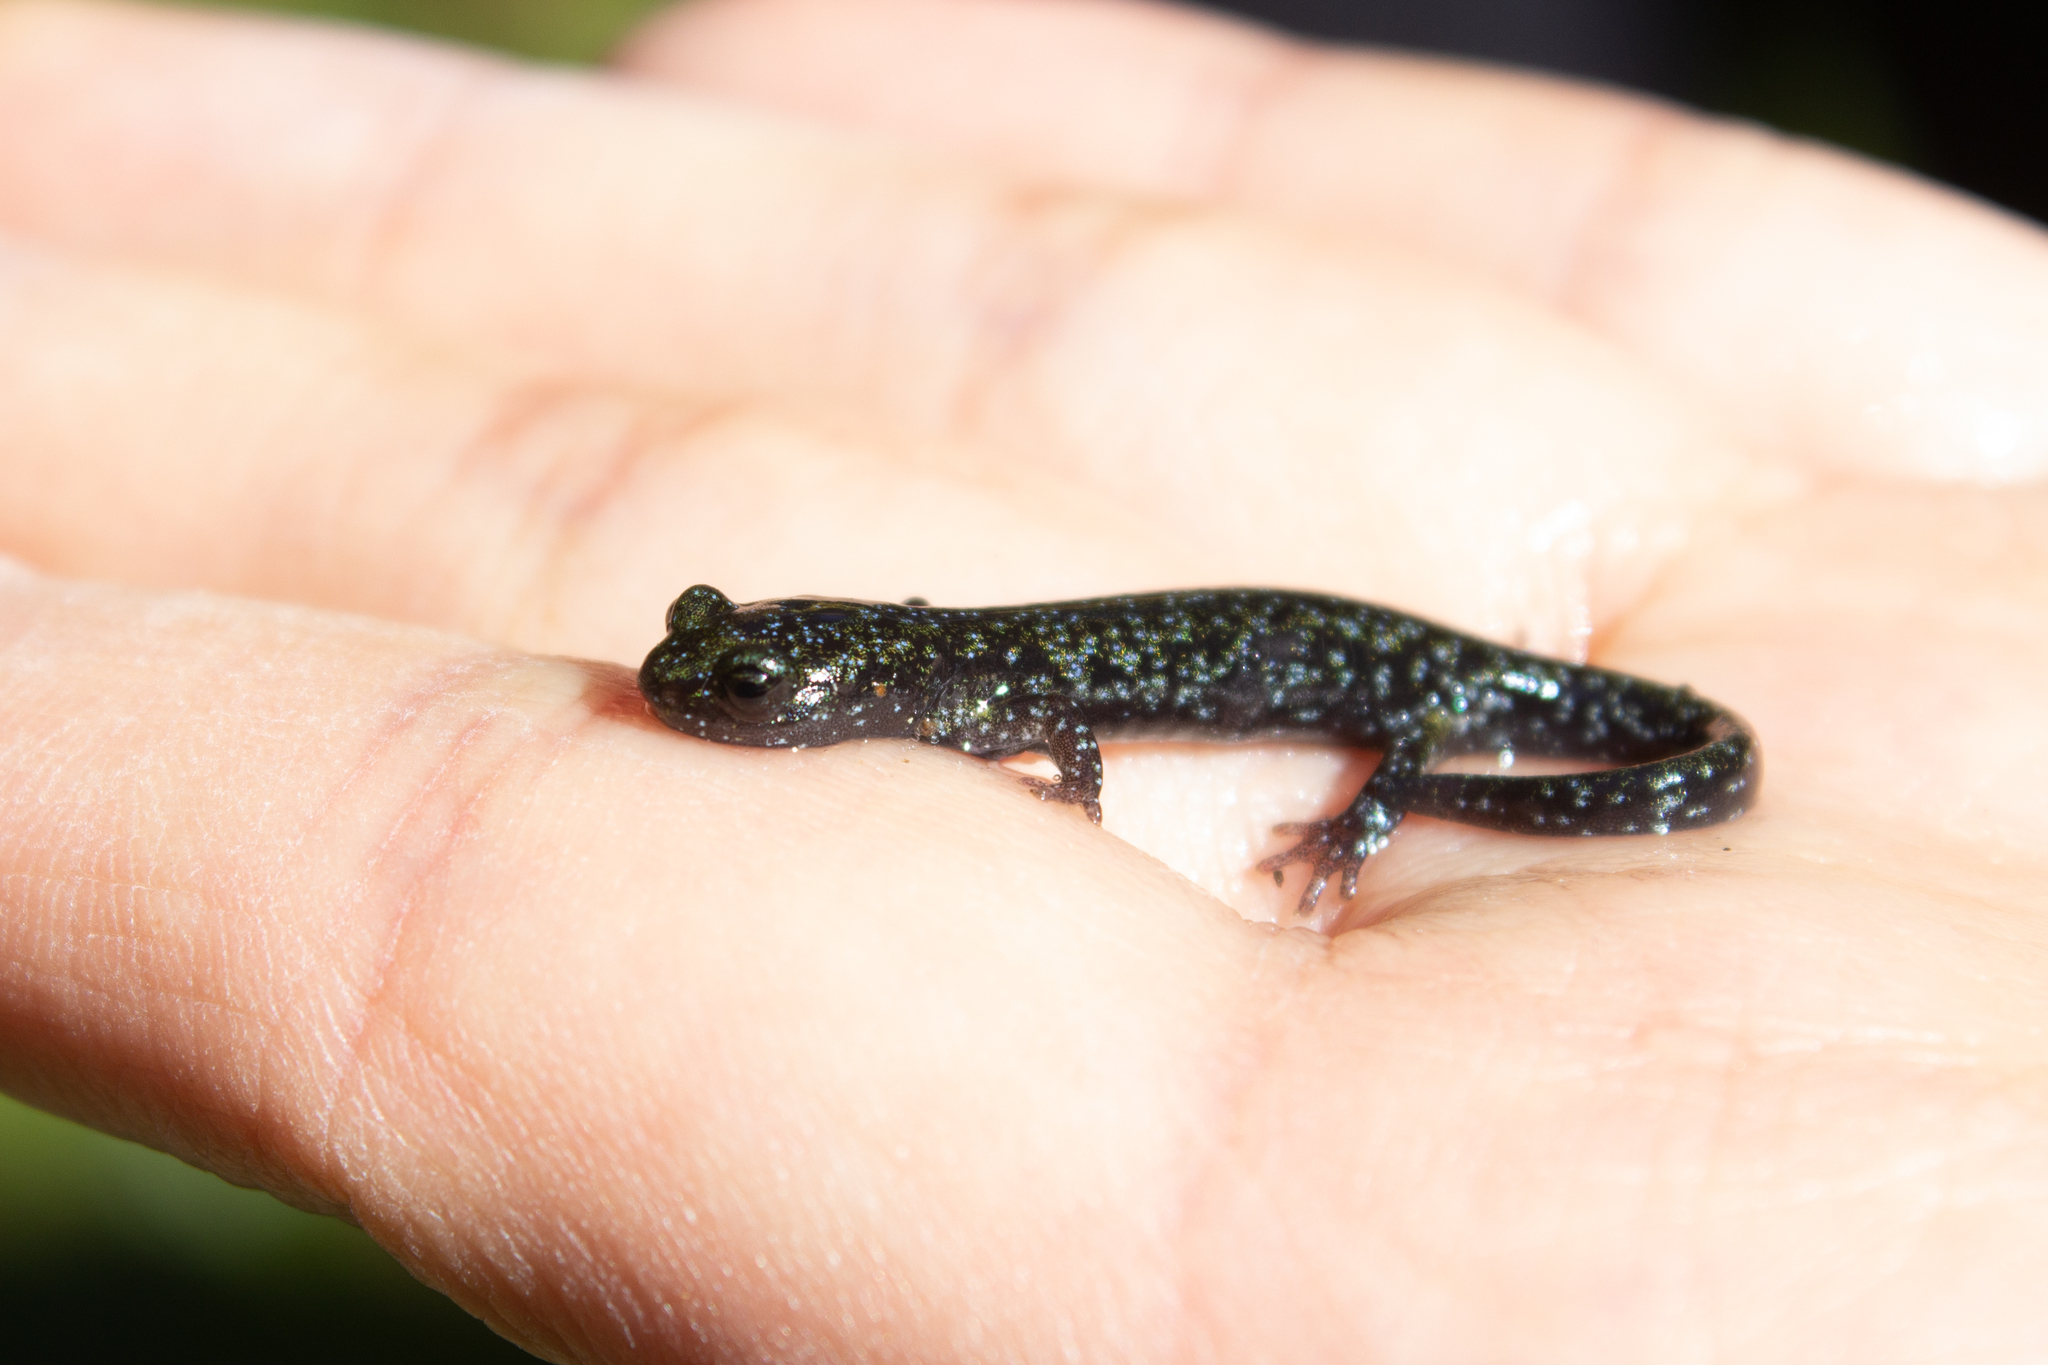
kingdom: Animalia
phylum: Chordata
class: Amphibia
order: Caudata
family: Plethodontidae
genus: Aneides
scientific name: Aneides niger
